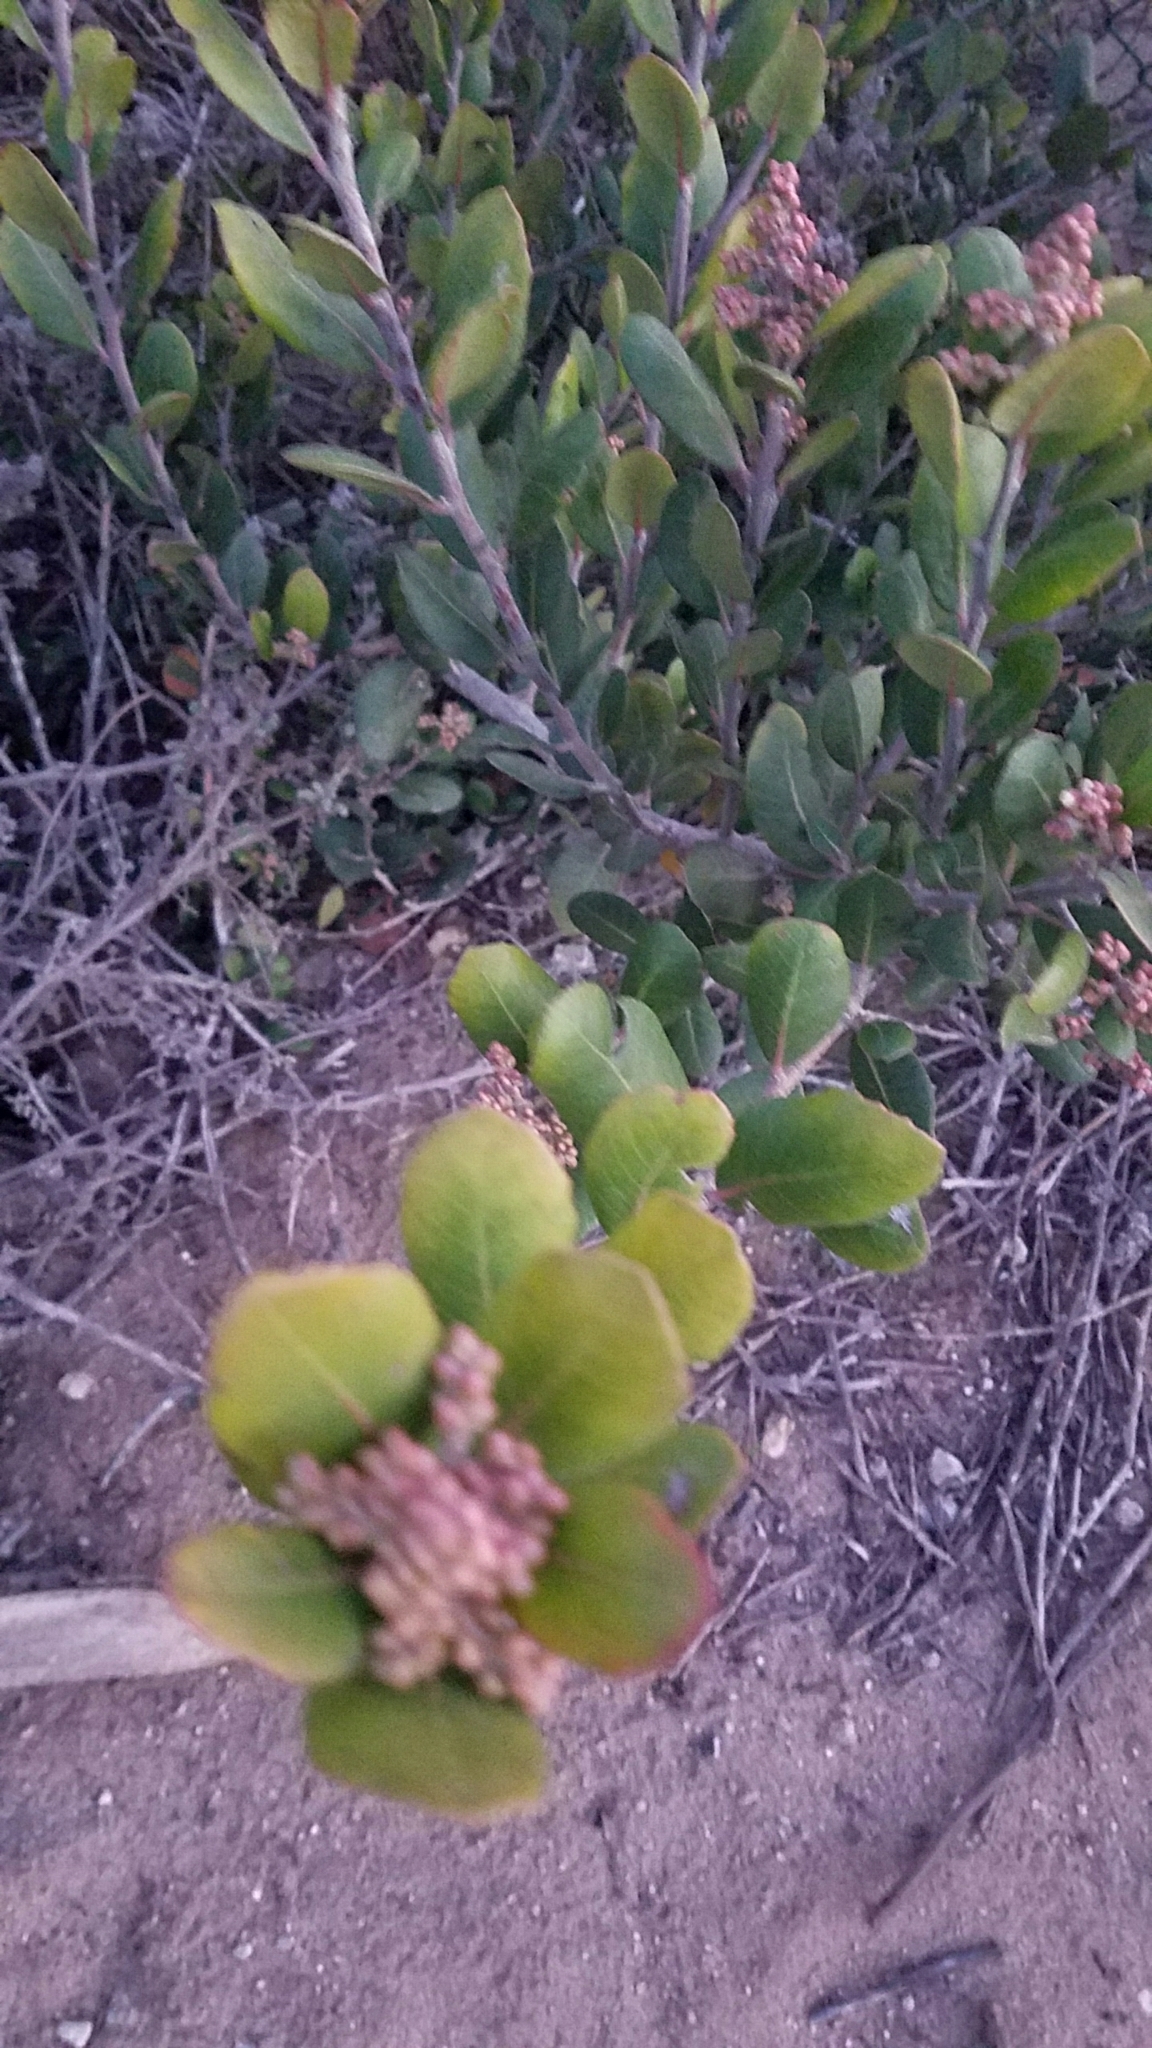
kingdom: Plantae
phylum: Tracheophyta
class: Magnoliopsida
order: Sapindales
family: Anacardiaceae
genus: Rhus
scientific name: Rhus integrifolia
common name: Lemonade sumac
